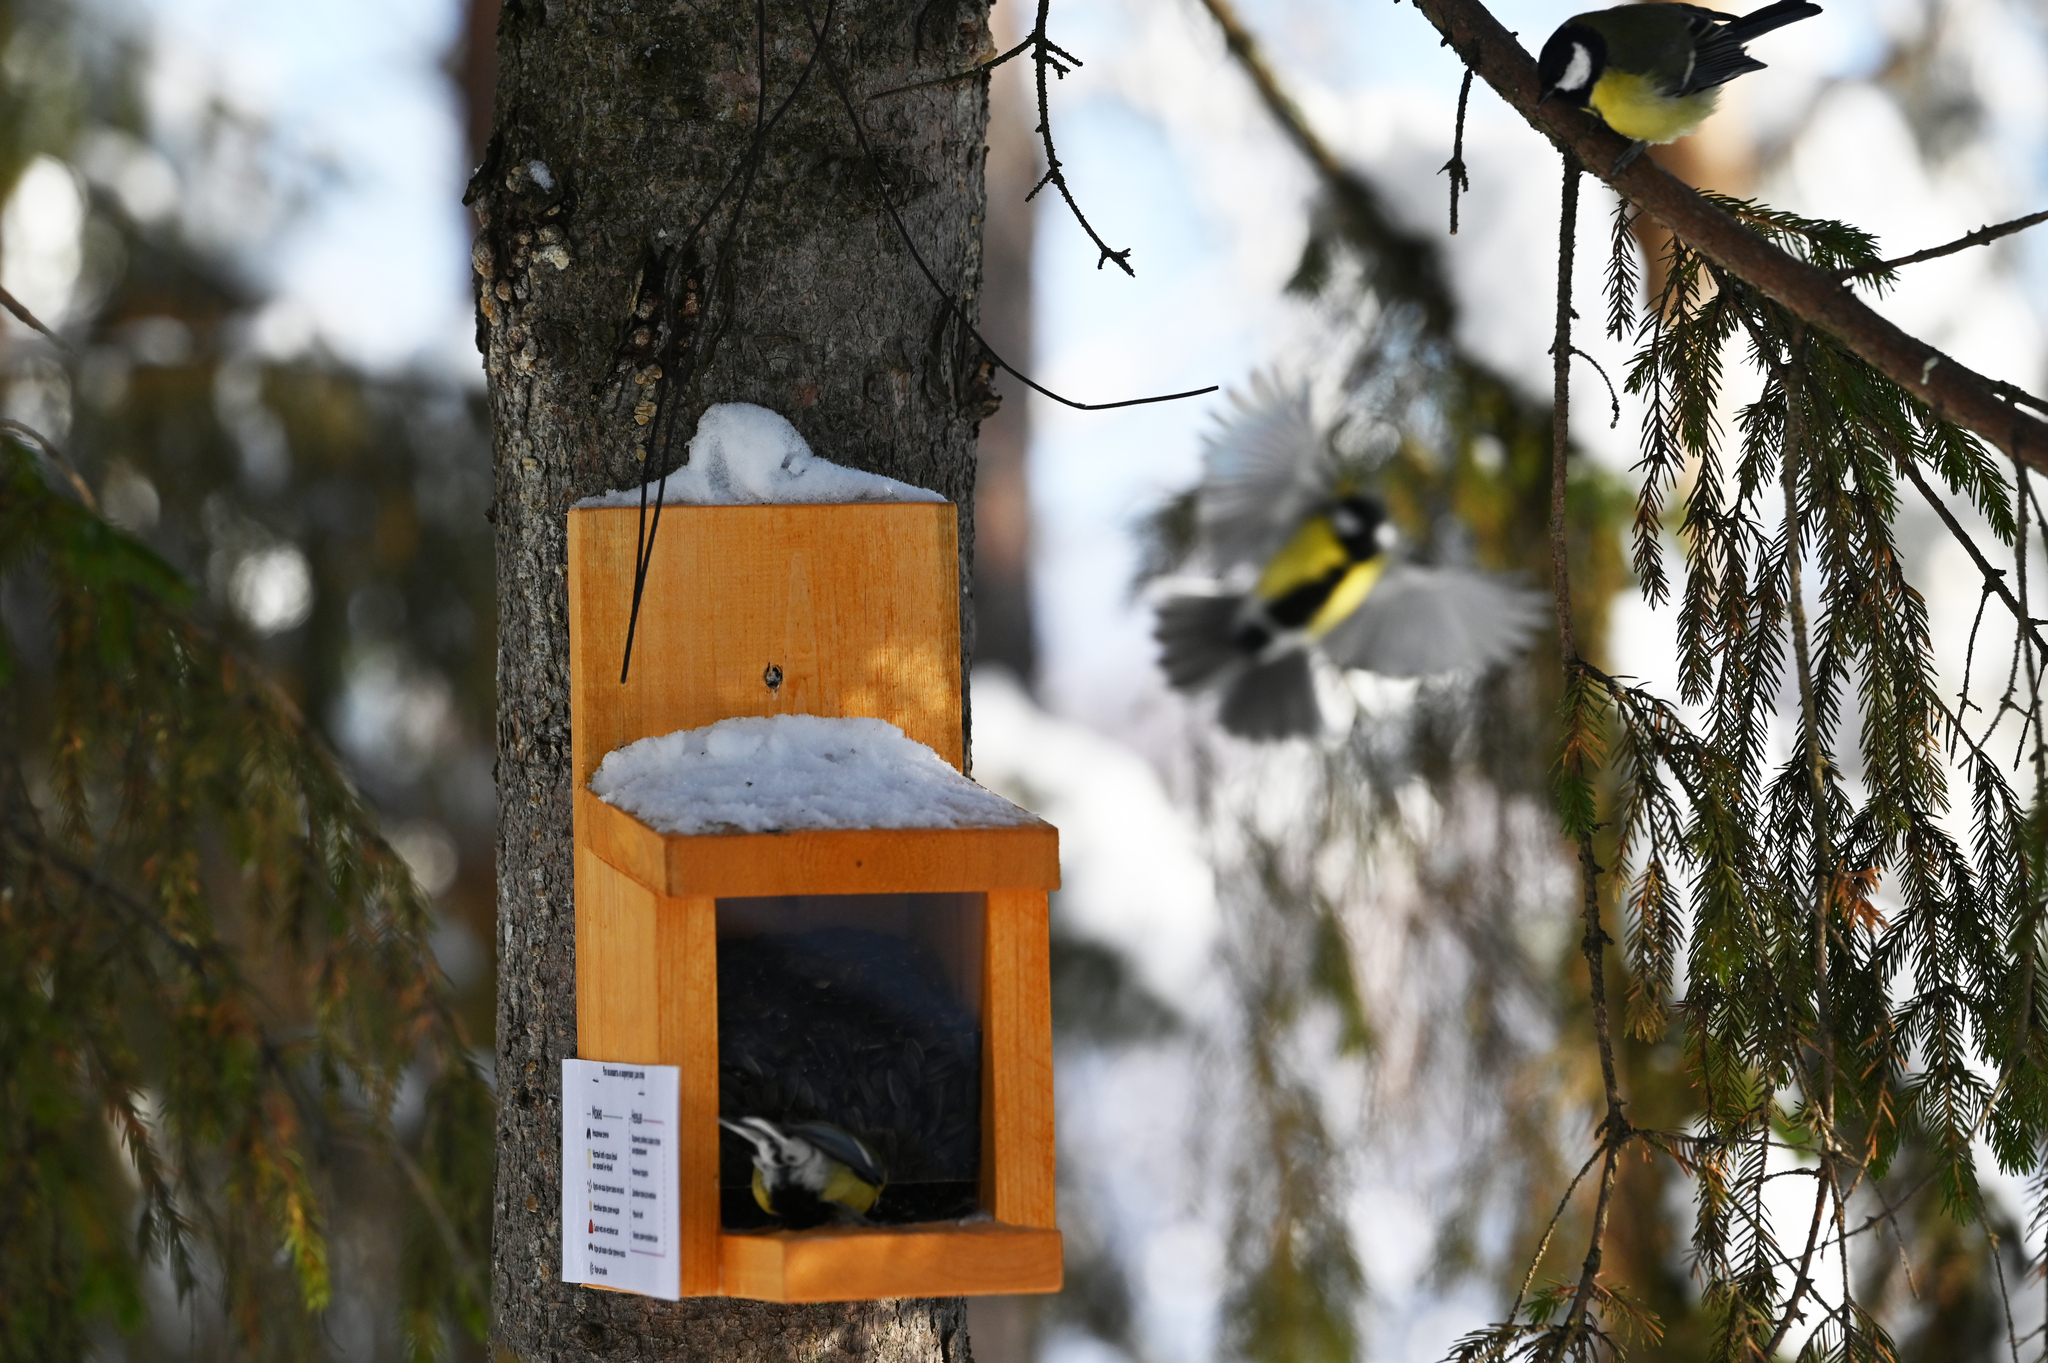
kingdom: Animalia
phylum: Chordata
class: Aves
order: Passeriformes
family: Paridae
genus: Parus
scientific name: Parus major
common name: Great tit
